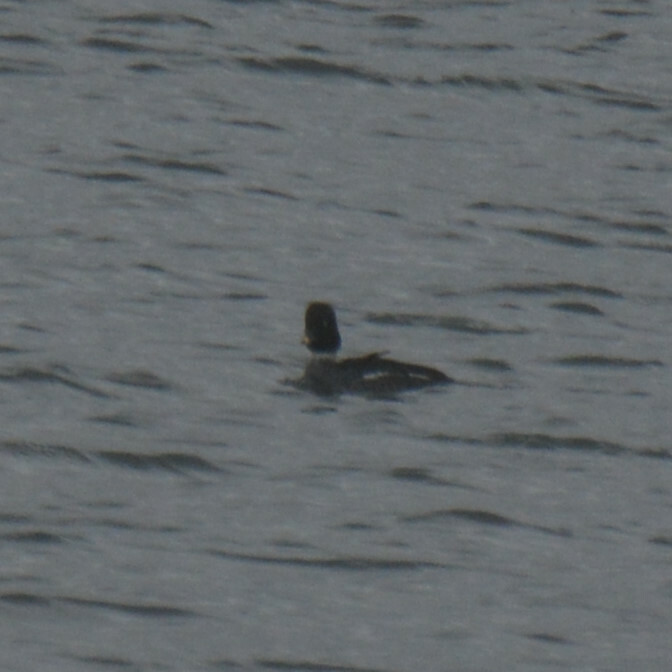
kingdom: Animalia
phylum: Chordata
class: Aves
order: Anseriformes
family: Anatidae
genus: Bucephala
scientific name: Bucephala clangula
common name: Common goldeneye
